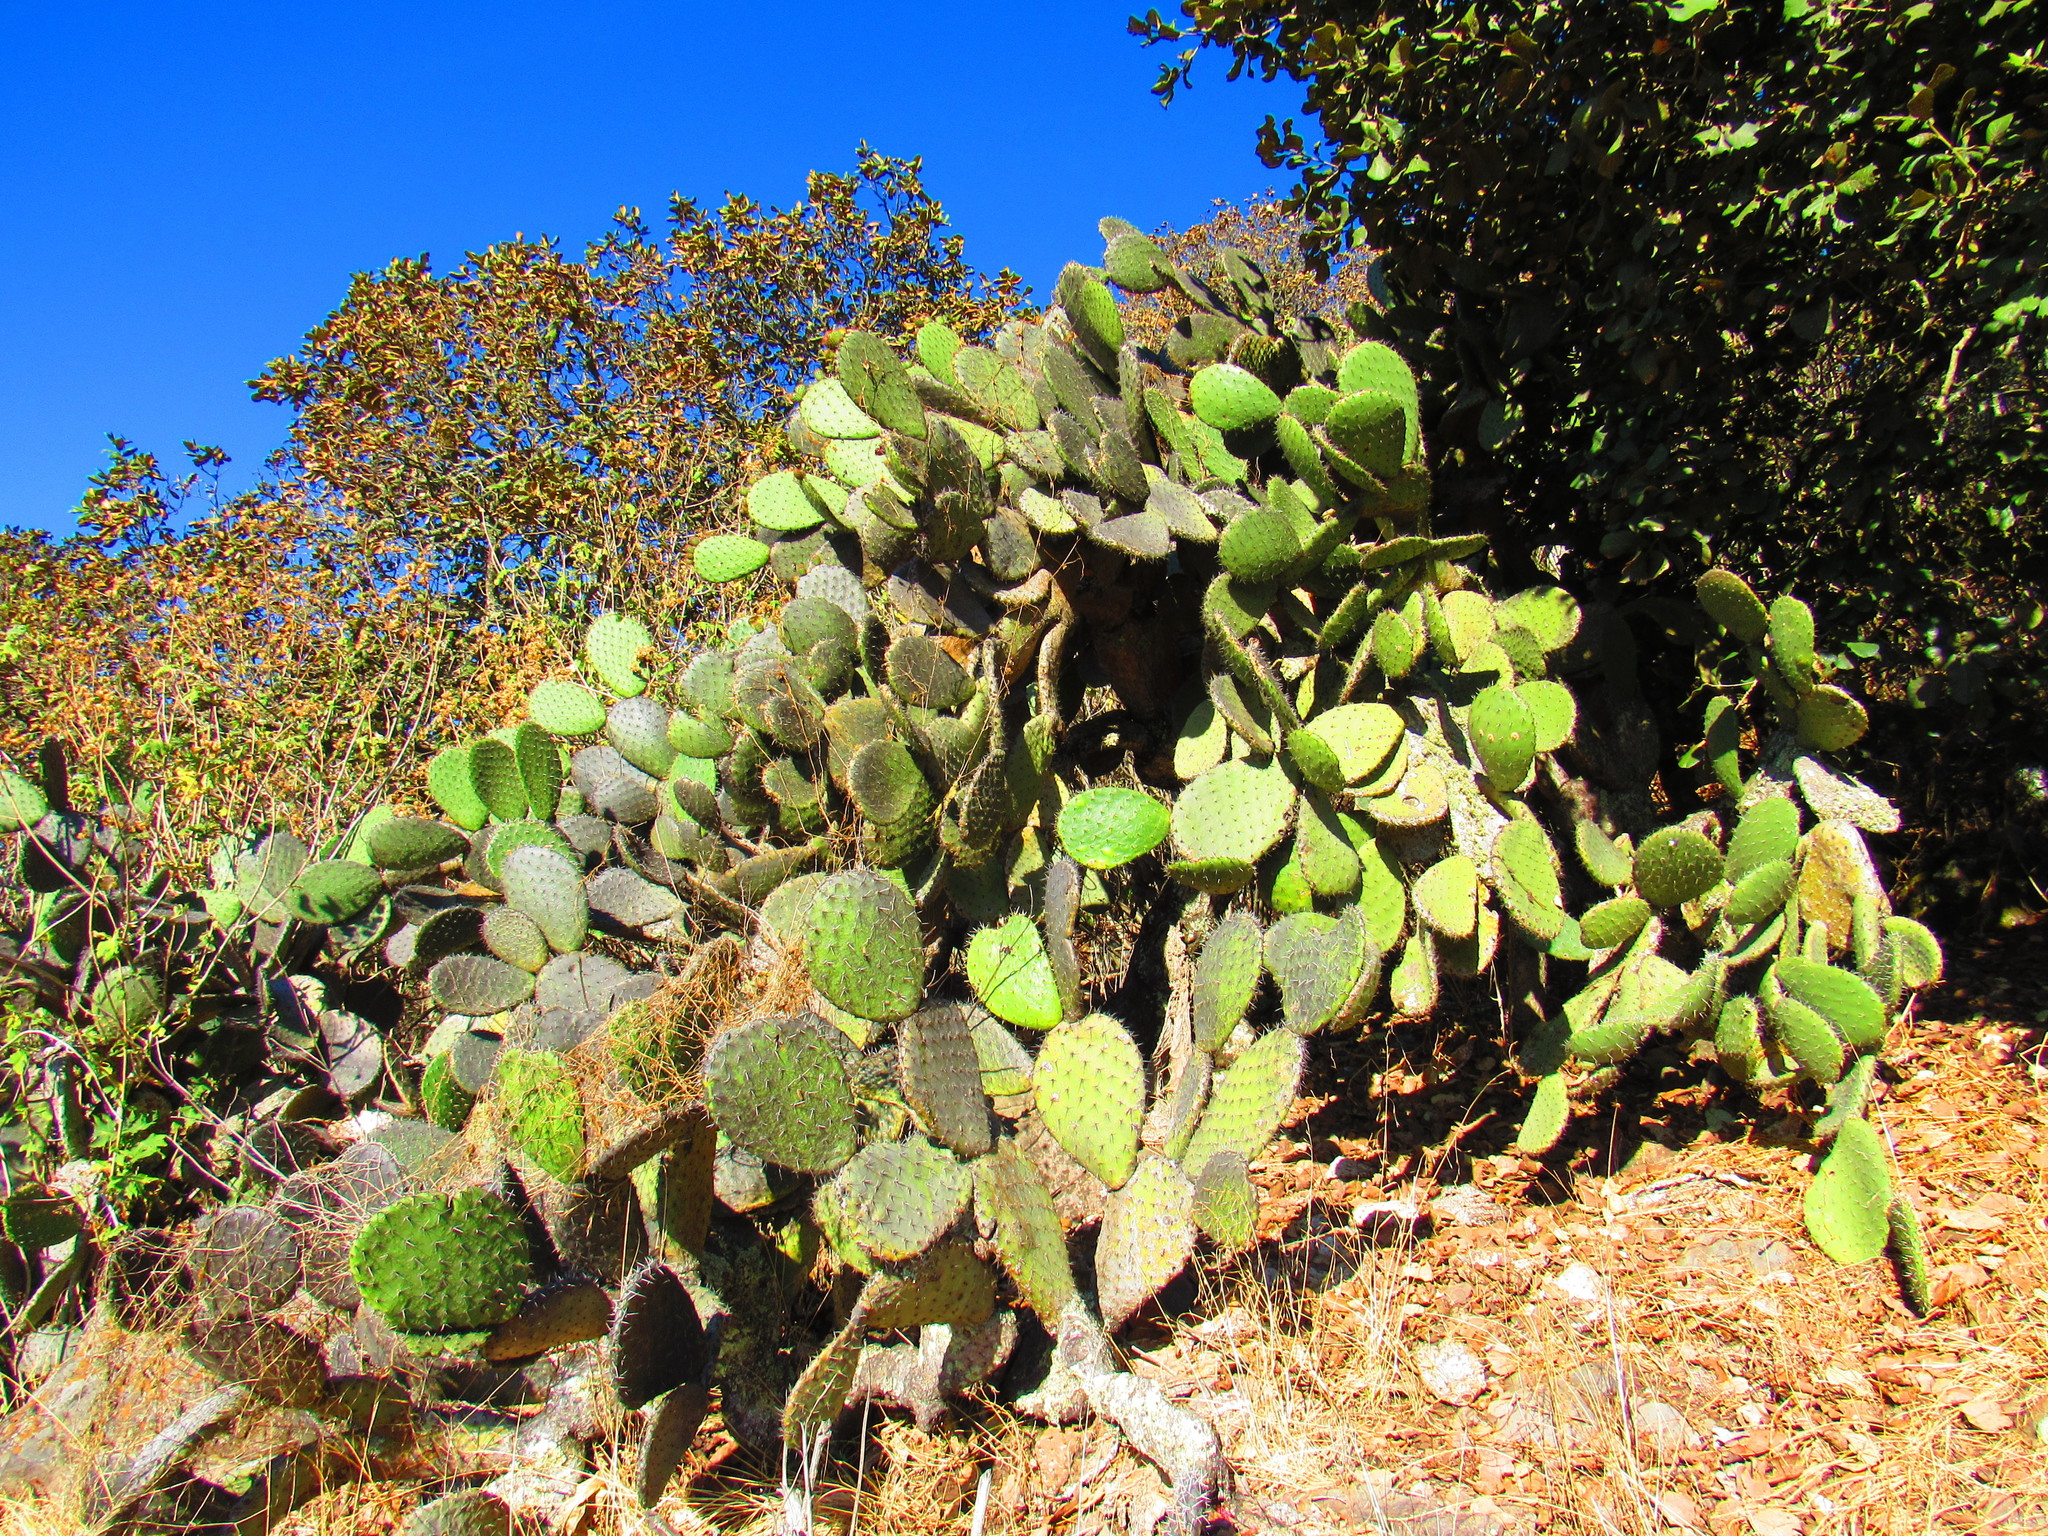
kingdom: Plantae
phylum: Tracheophyta
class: Magnoliopsida
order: Caryophyllales
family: Cactaceae
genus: Opuntia
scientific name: Opuntia streptacantha
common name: Gracemere-pear
